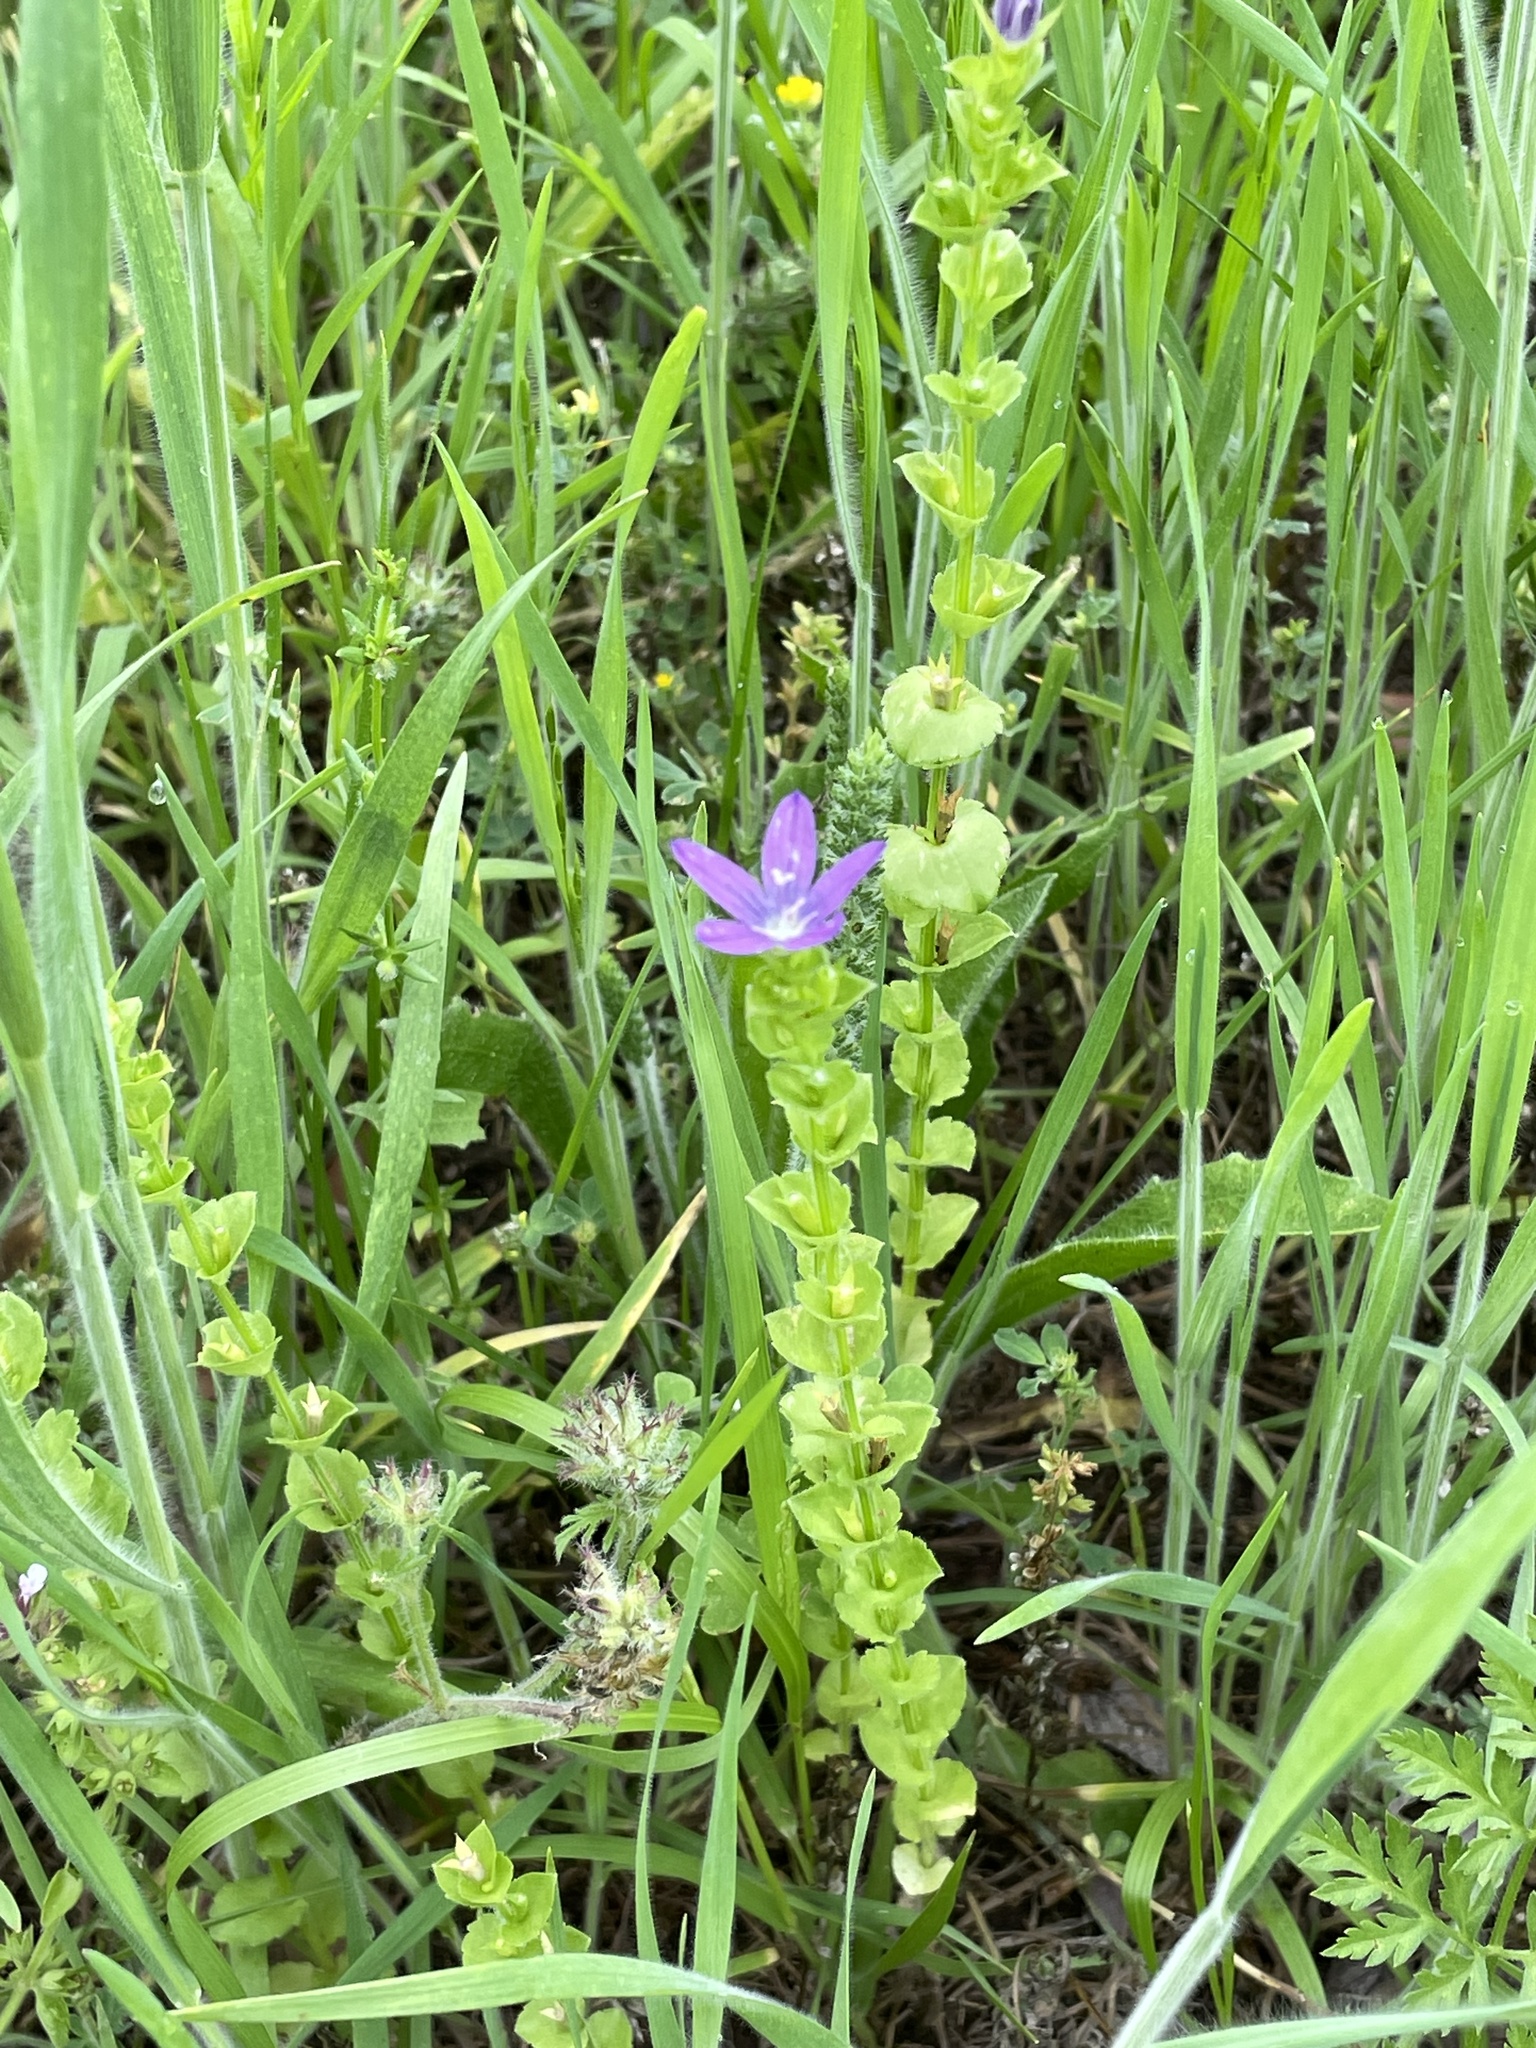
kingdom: Plantae
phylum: Tracheophyta
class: Magnoliopsida
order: Asterales
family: Campanulaceae
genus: Triodanis
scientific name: Triodanis perfoliata
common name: Clasping venus' looking-glass
